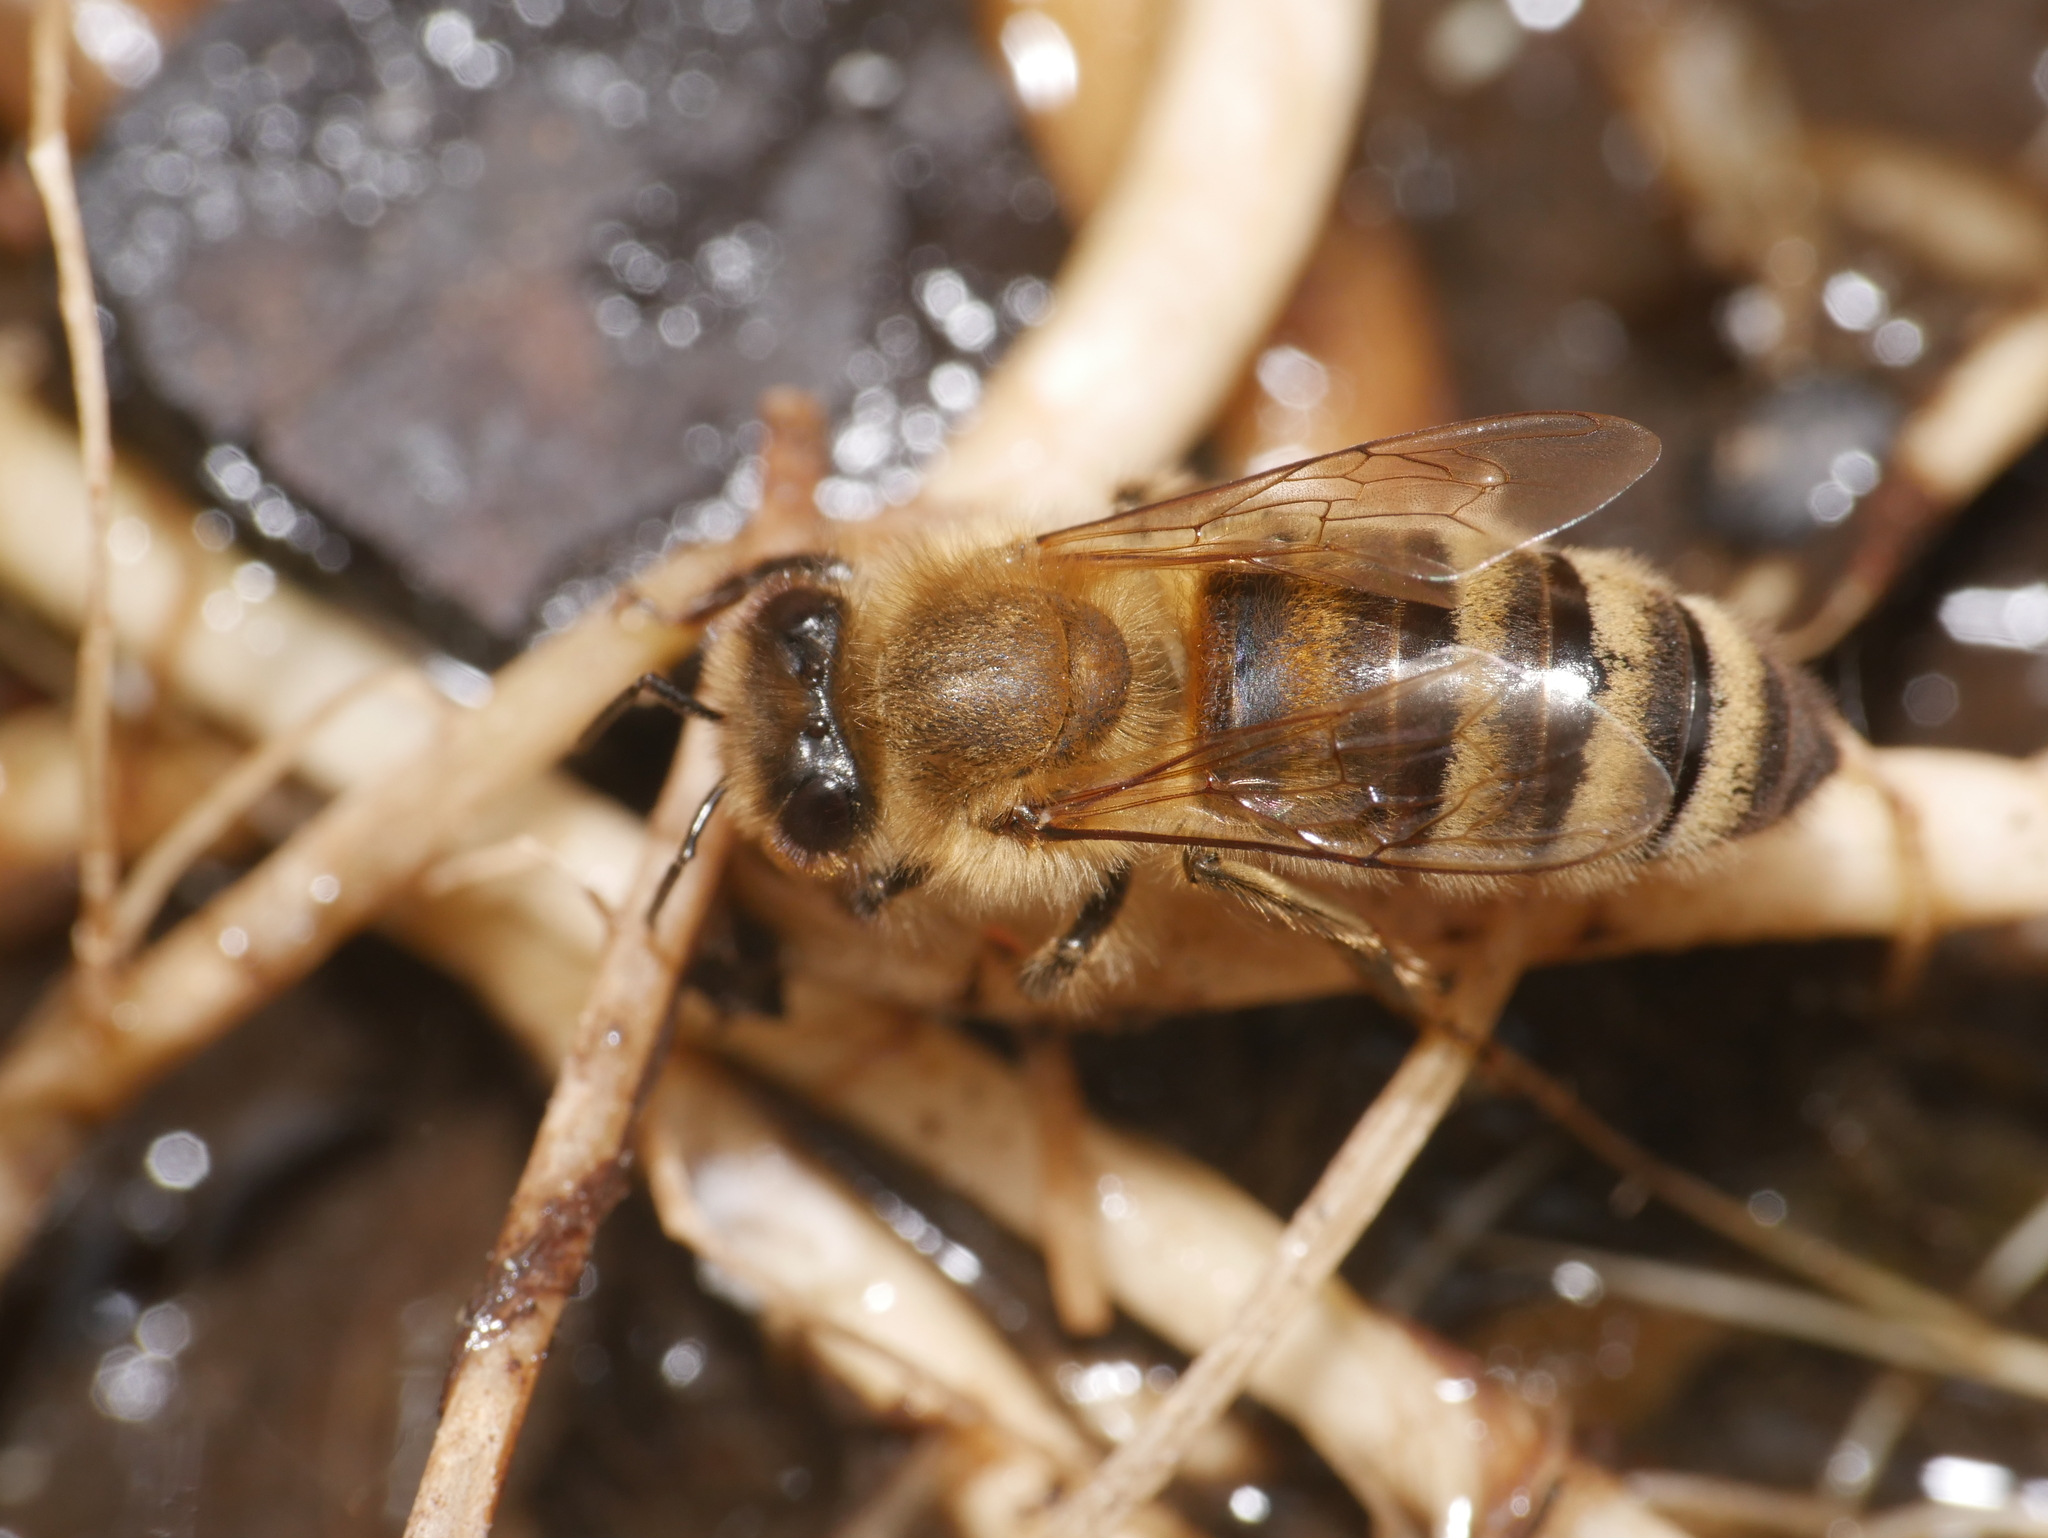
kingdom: Animalia
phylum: Arthropoda
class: Insecta
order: Hymenoptera
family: Apidae
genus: Apis
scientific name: Apis mellifera
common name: Honey bee
